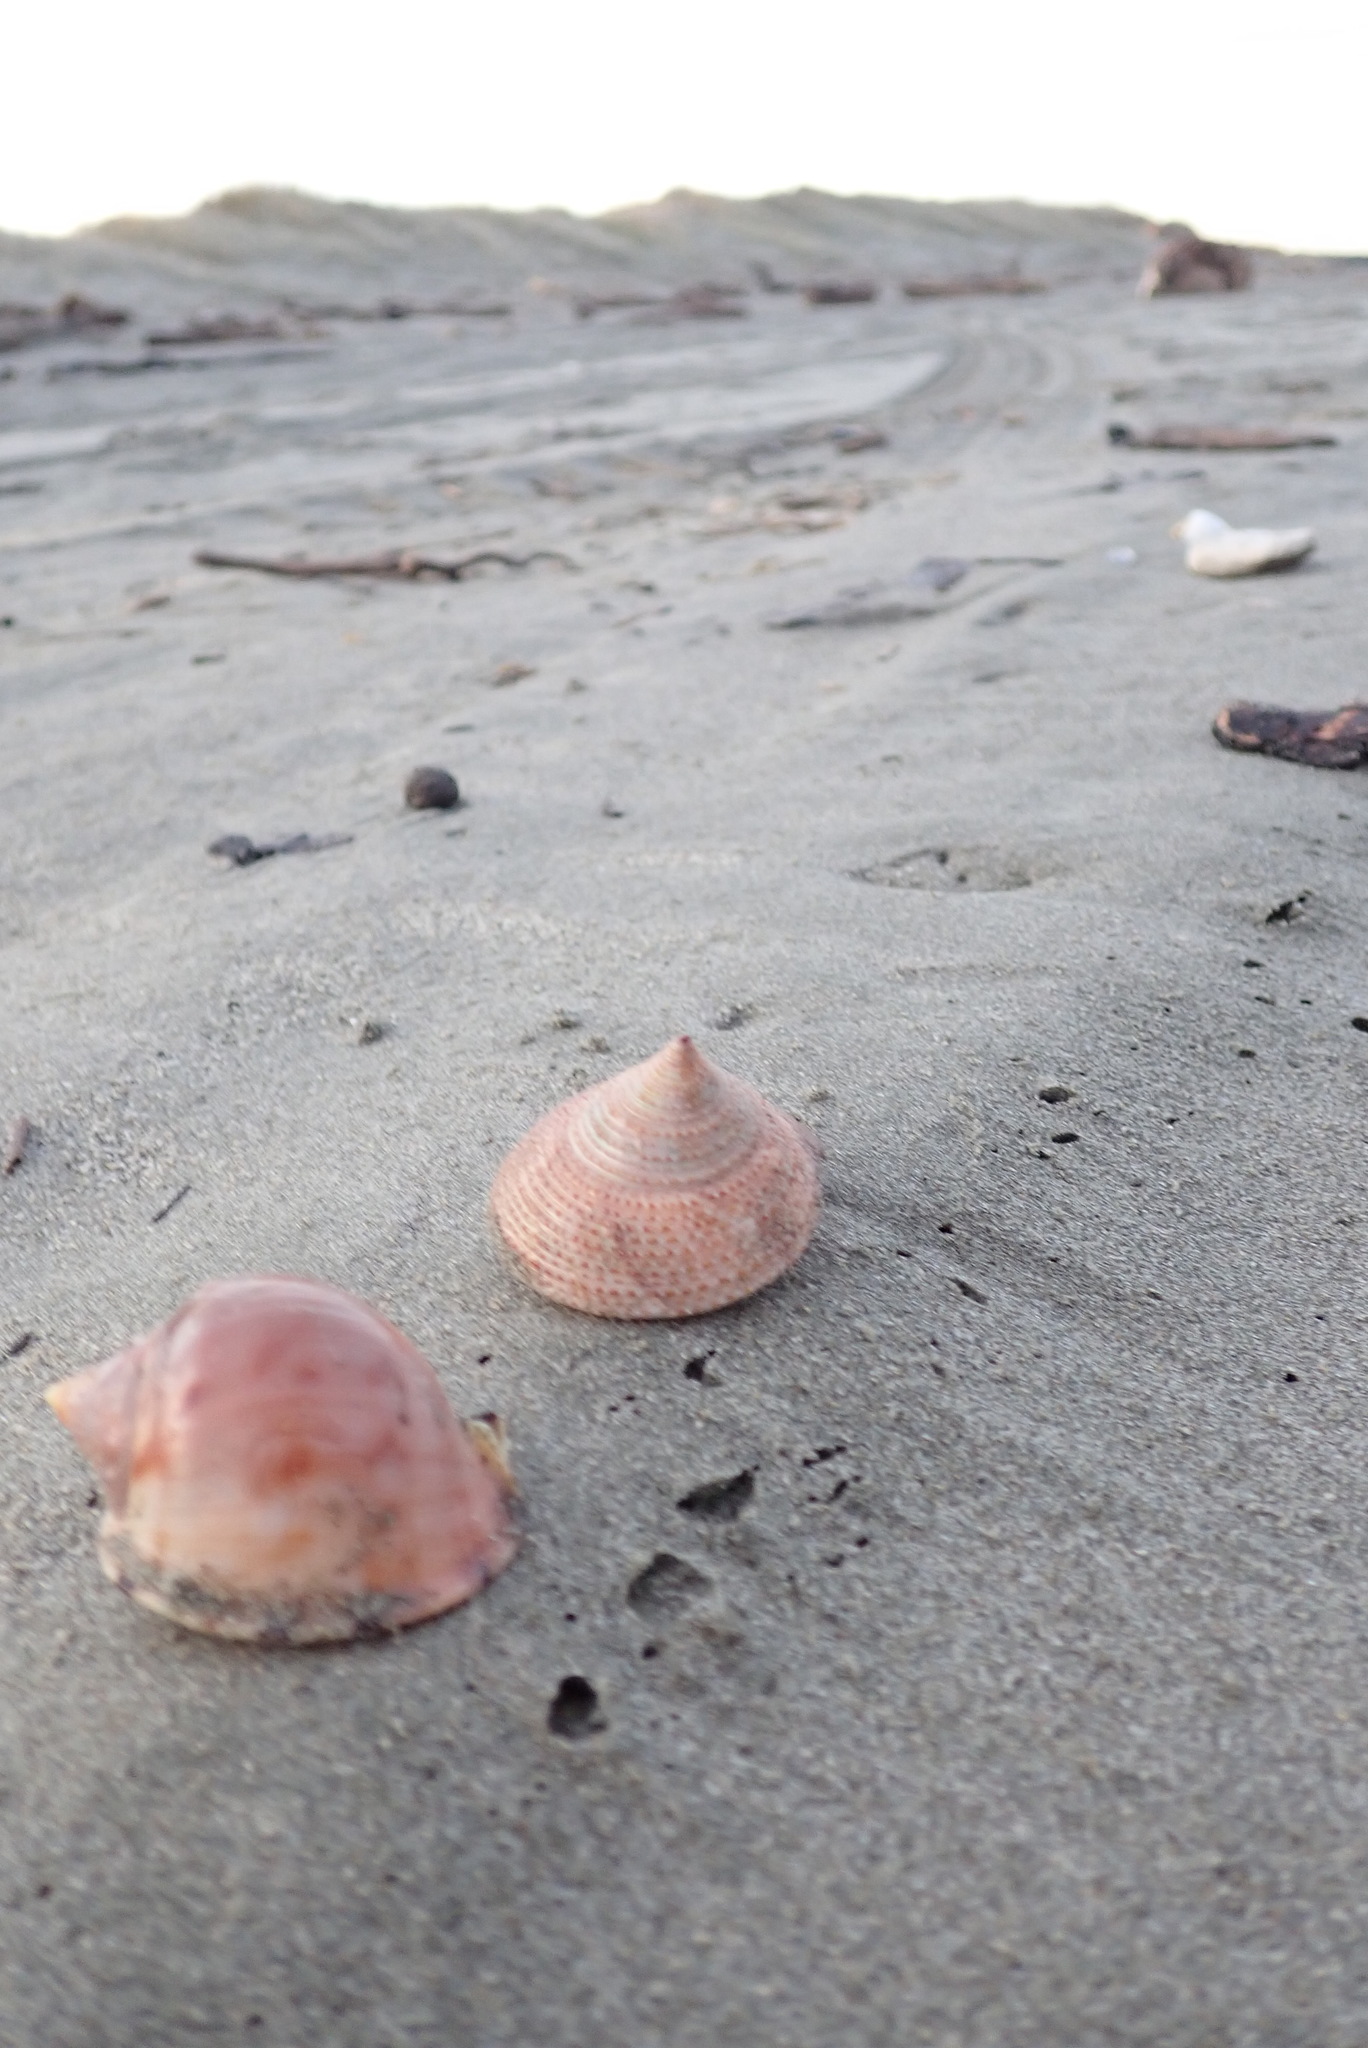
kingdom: Animalia
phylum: Mollusca
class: Gastropoda
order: Littorinimorpha
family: Cassidae
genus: Semicassis
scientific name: Semicassis pyrum
